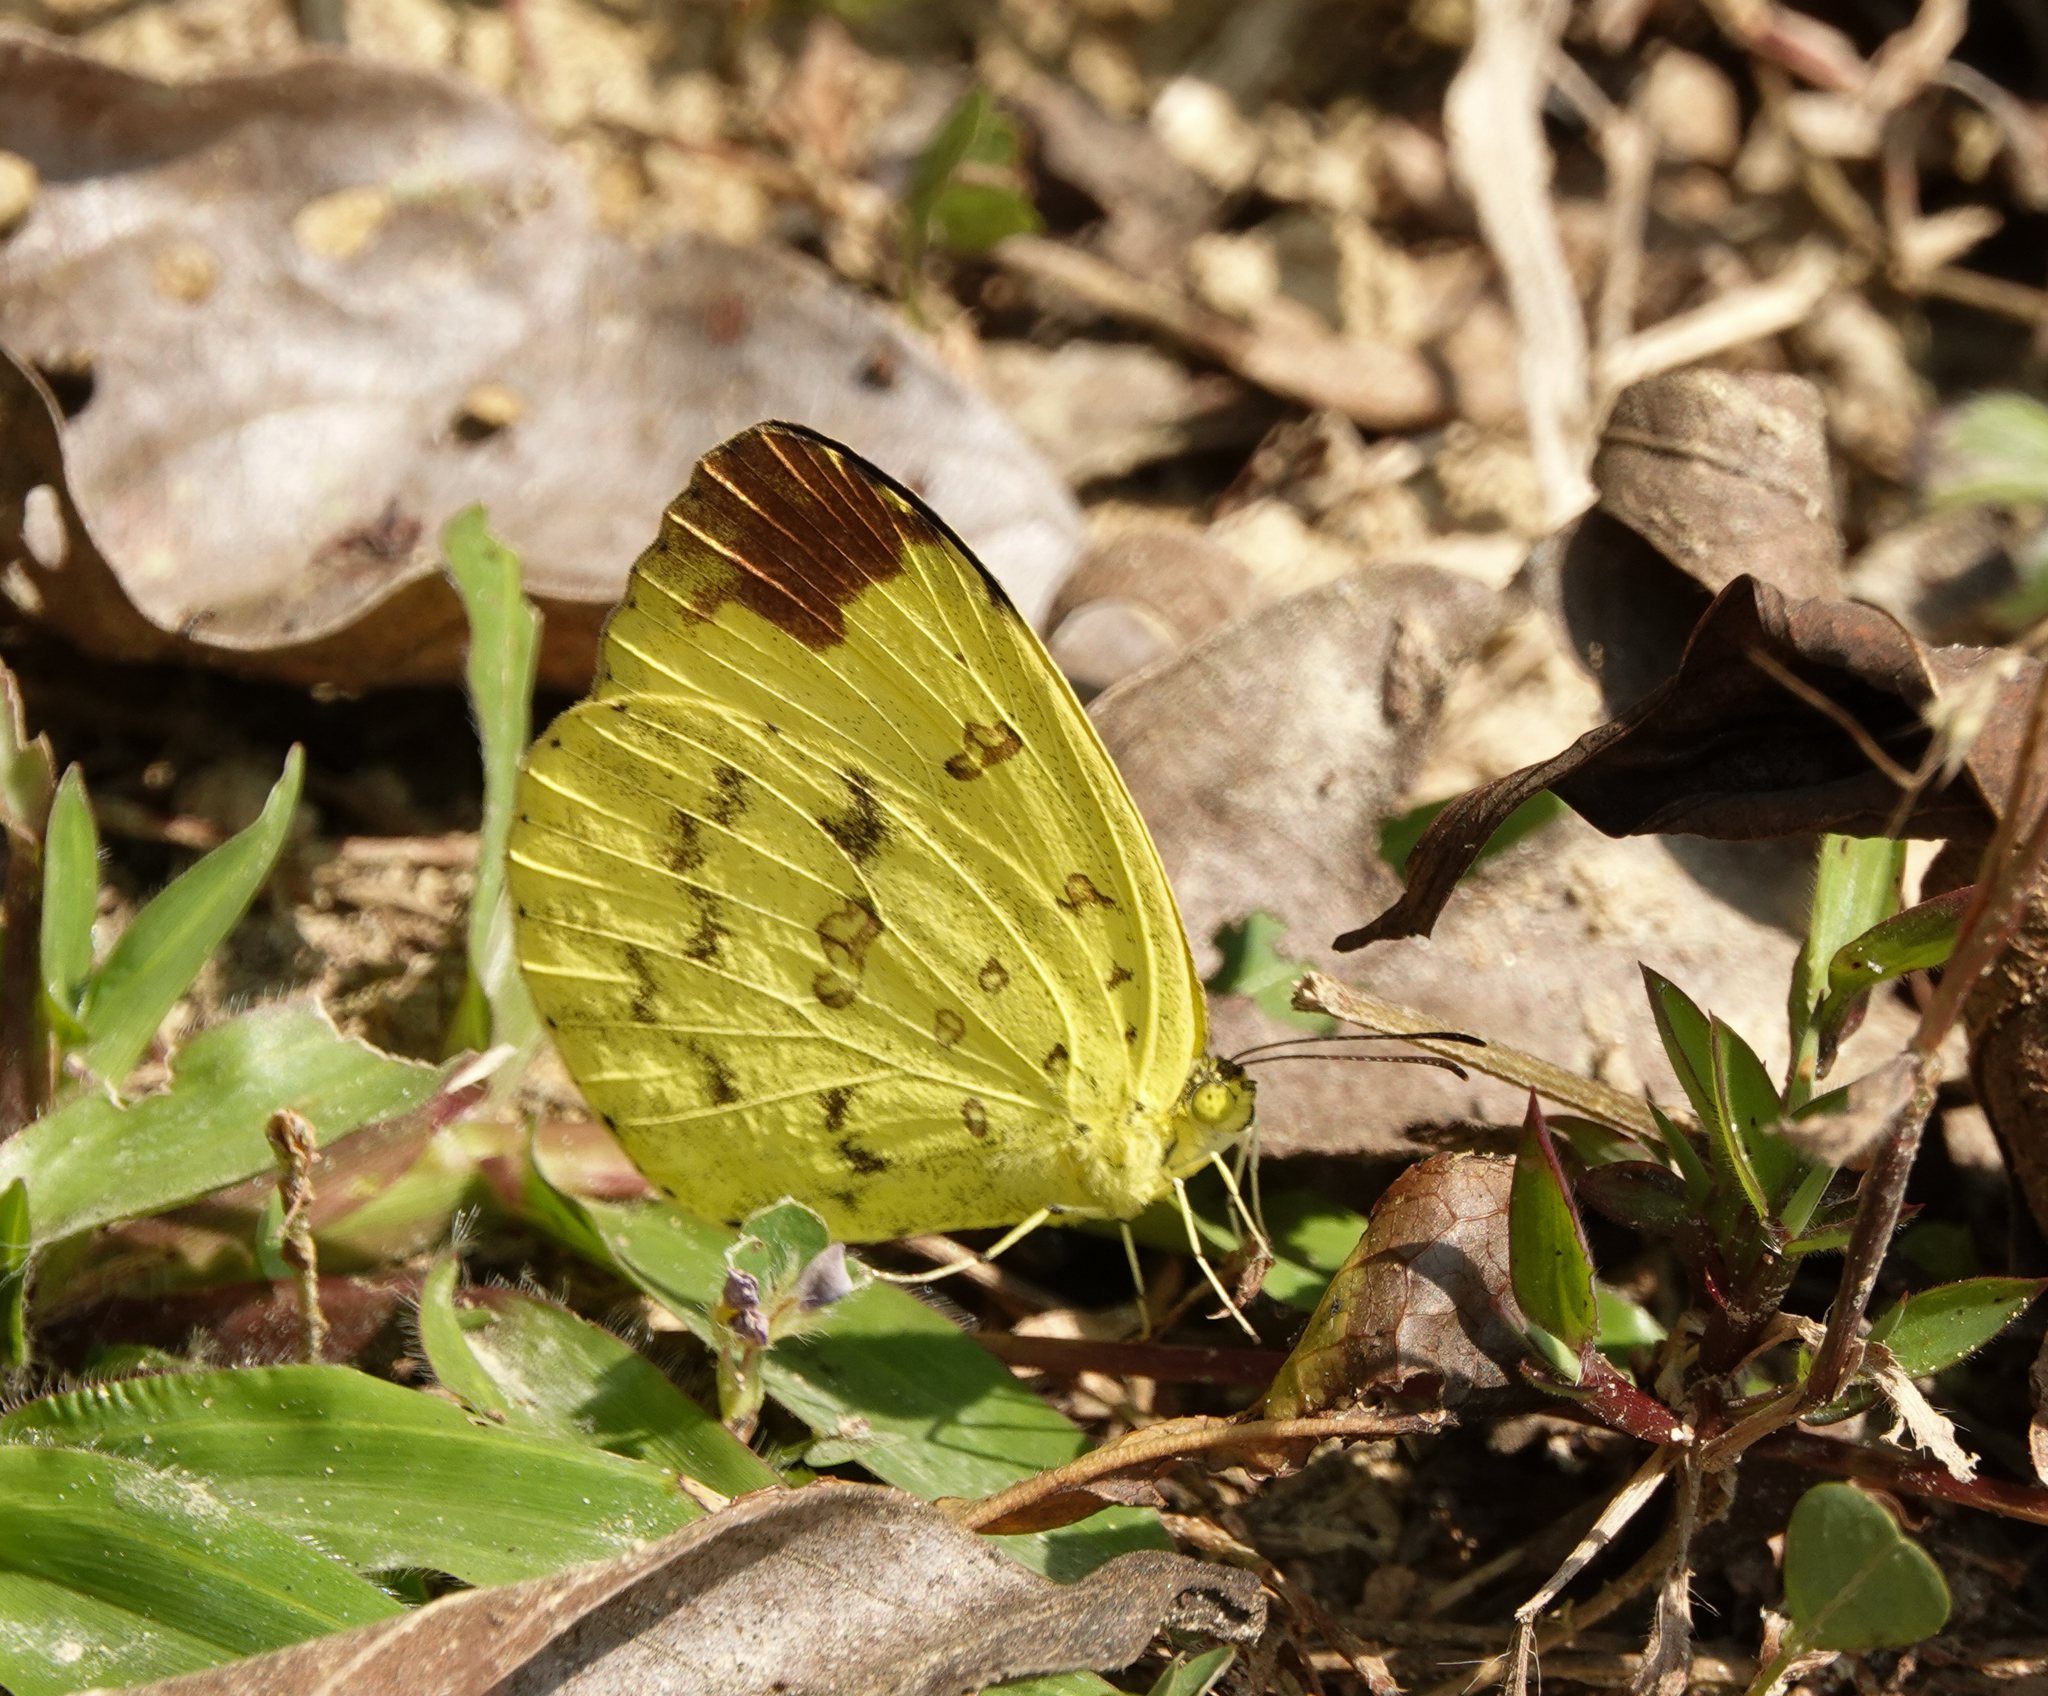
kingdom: Animalia
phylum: Arthropoda
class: Insecta
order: Lepidoptera
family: Pieridae
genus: Eurema
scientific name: Eurema blanda
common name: Three-spot grass yellow
